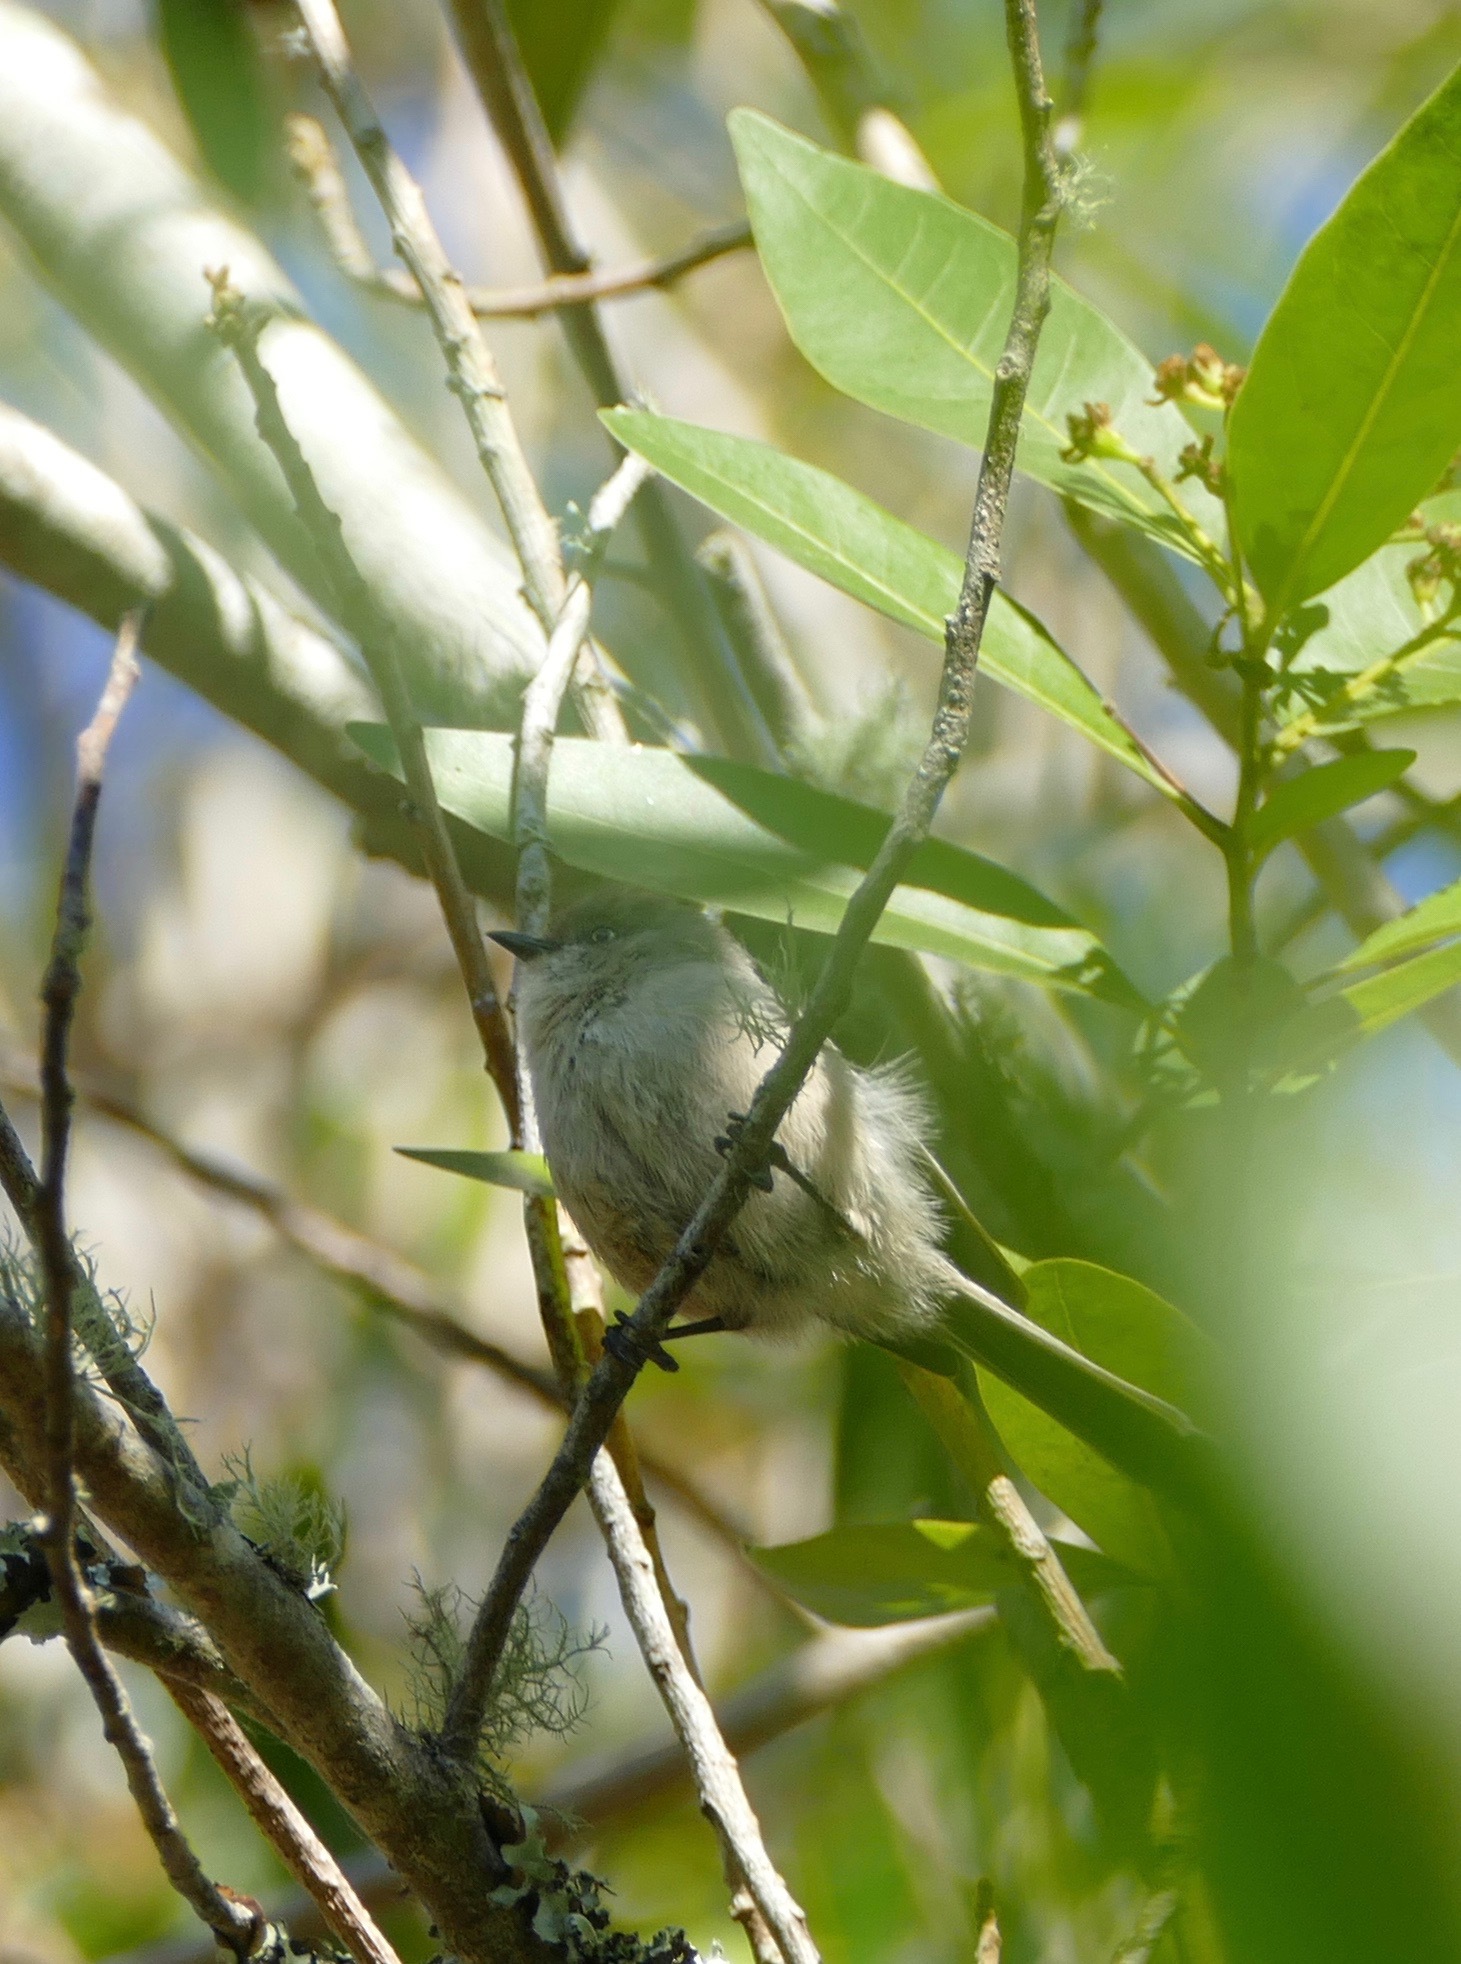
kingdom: Animalia
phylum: Chordata
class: Aves
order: Passeriformes
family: Aegithalidae
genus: Psaltriparus
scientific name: Psaltriparus minimus
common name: American bushtit
